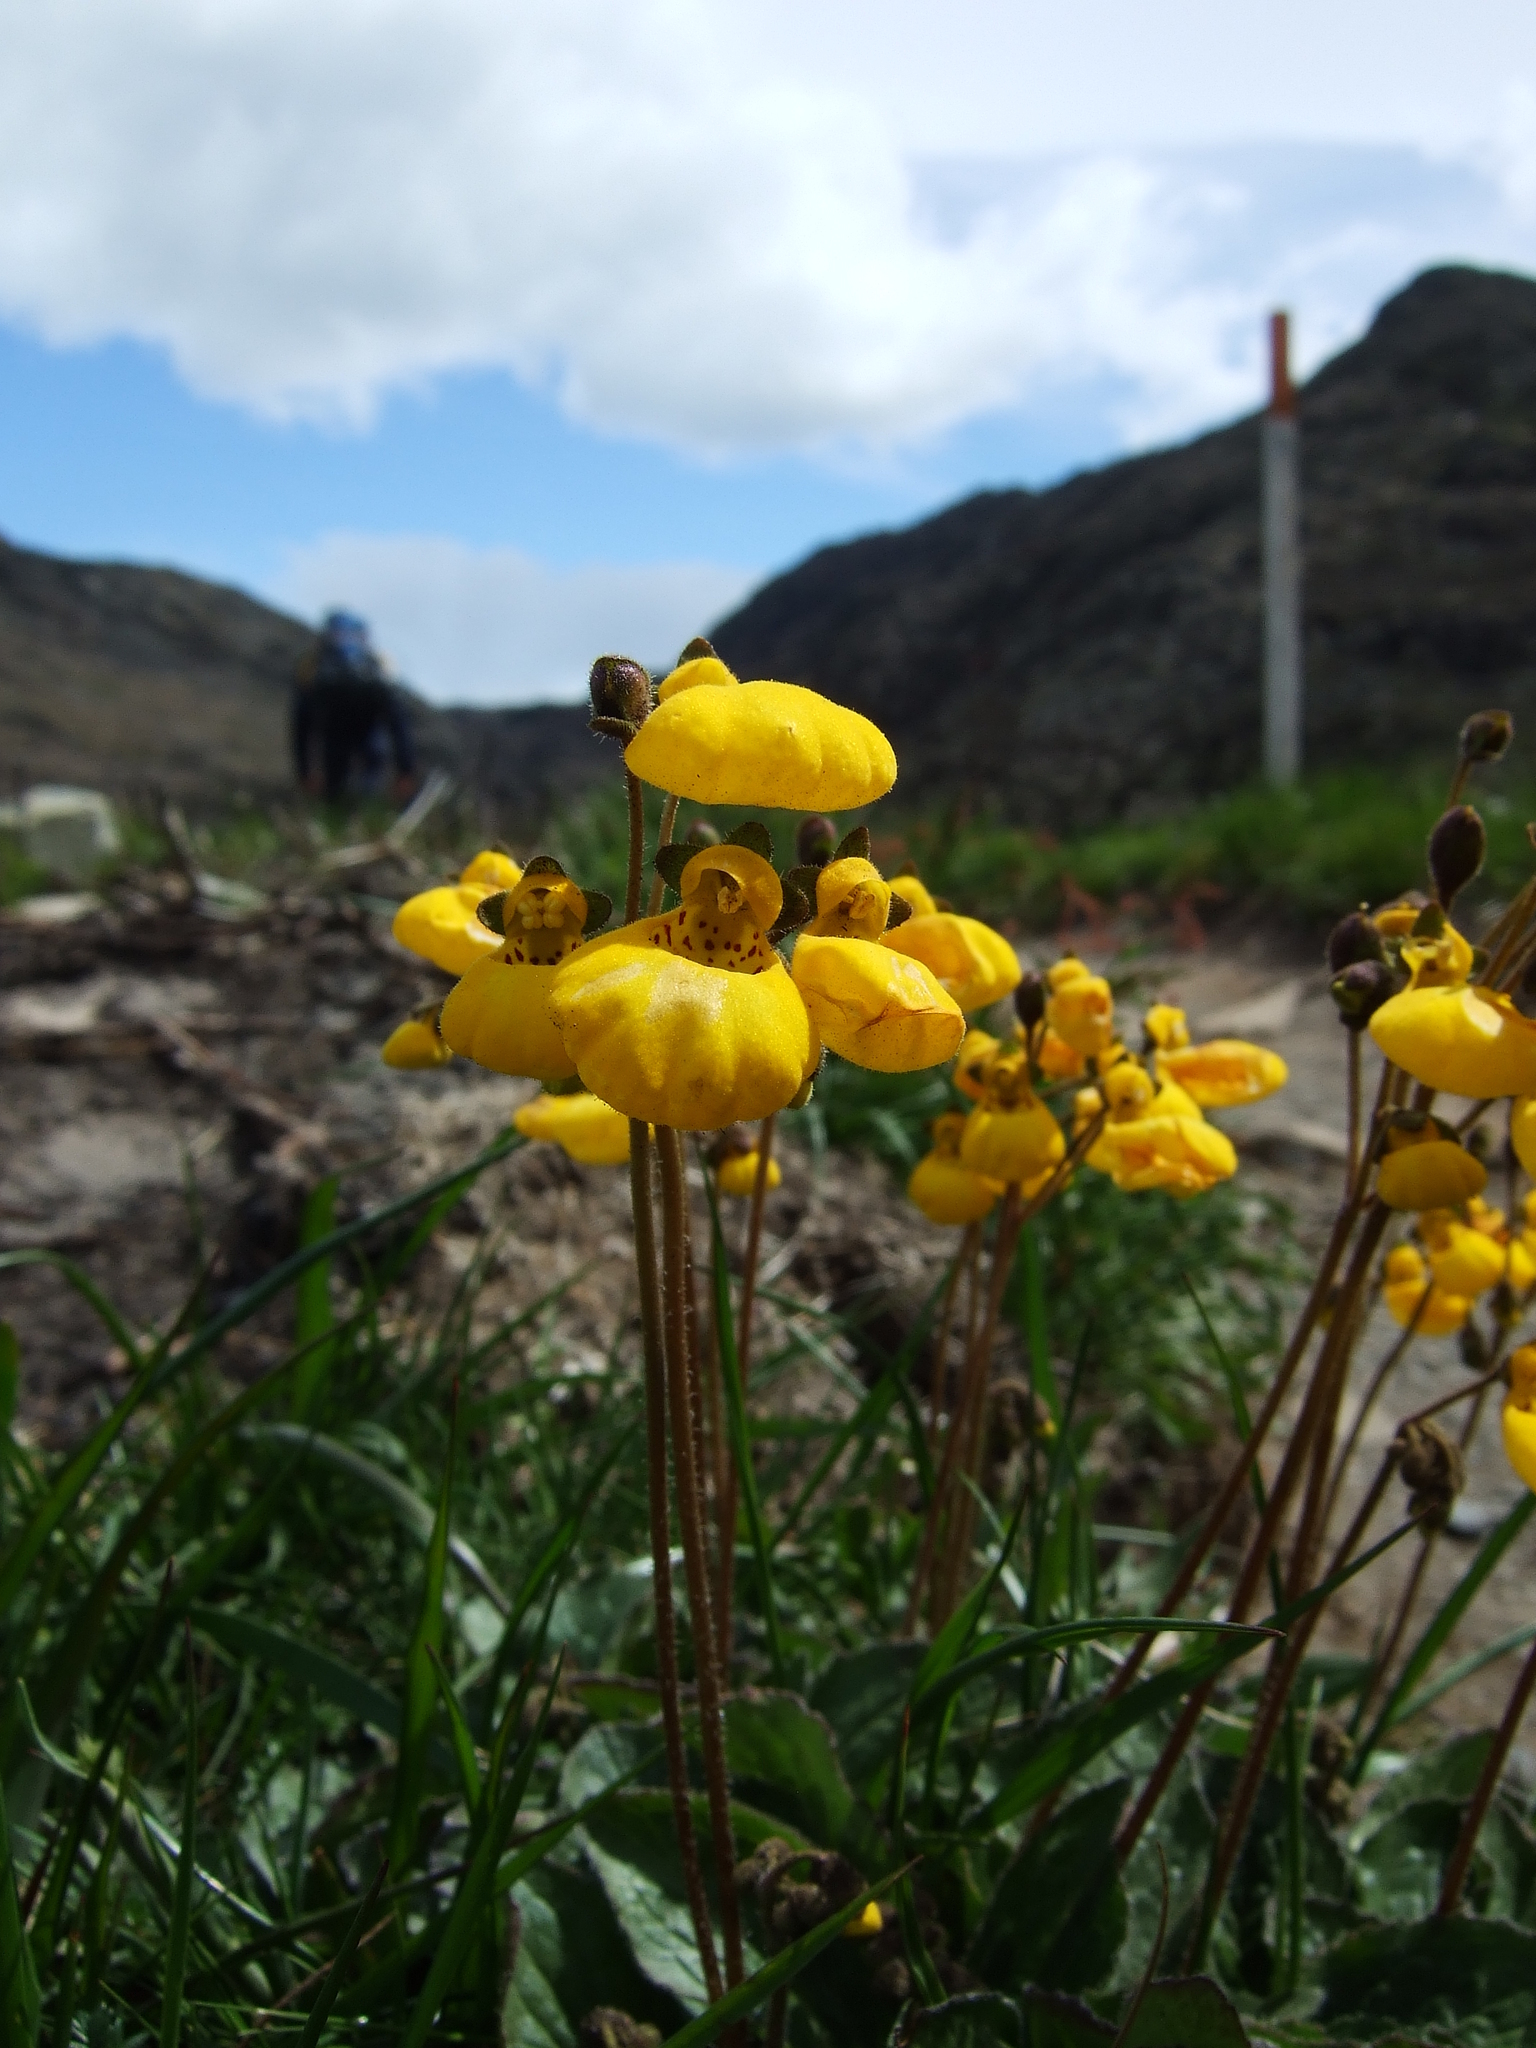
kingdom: Plantae
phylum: Tracheophyta
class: Magnoliopsida
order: Lamiales
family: Calceolariaceae
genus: Calceolaria
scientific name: Calceolaria biflora
